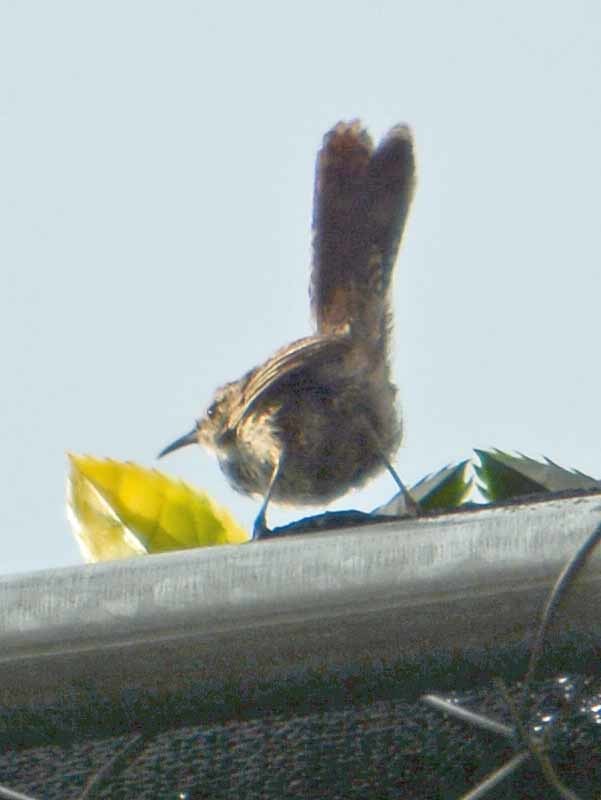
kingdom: Animalia
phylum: Chordata
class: Aves
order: Passeriformes
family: Troglodytidae
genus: Thryomanes
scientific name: Thryomanes bewickii
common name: Bewick's wren
